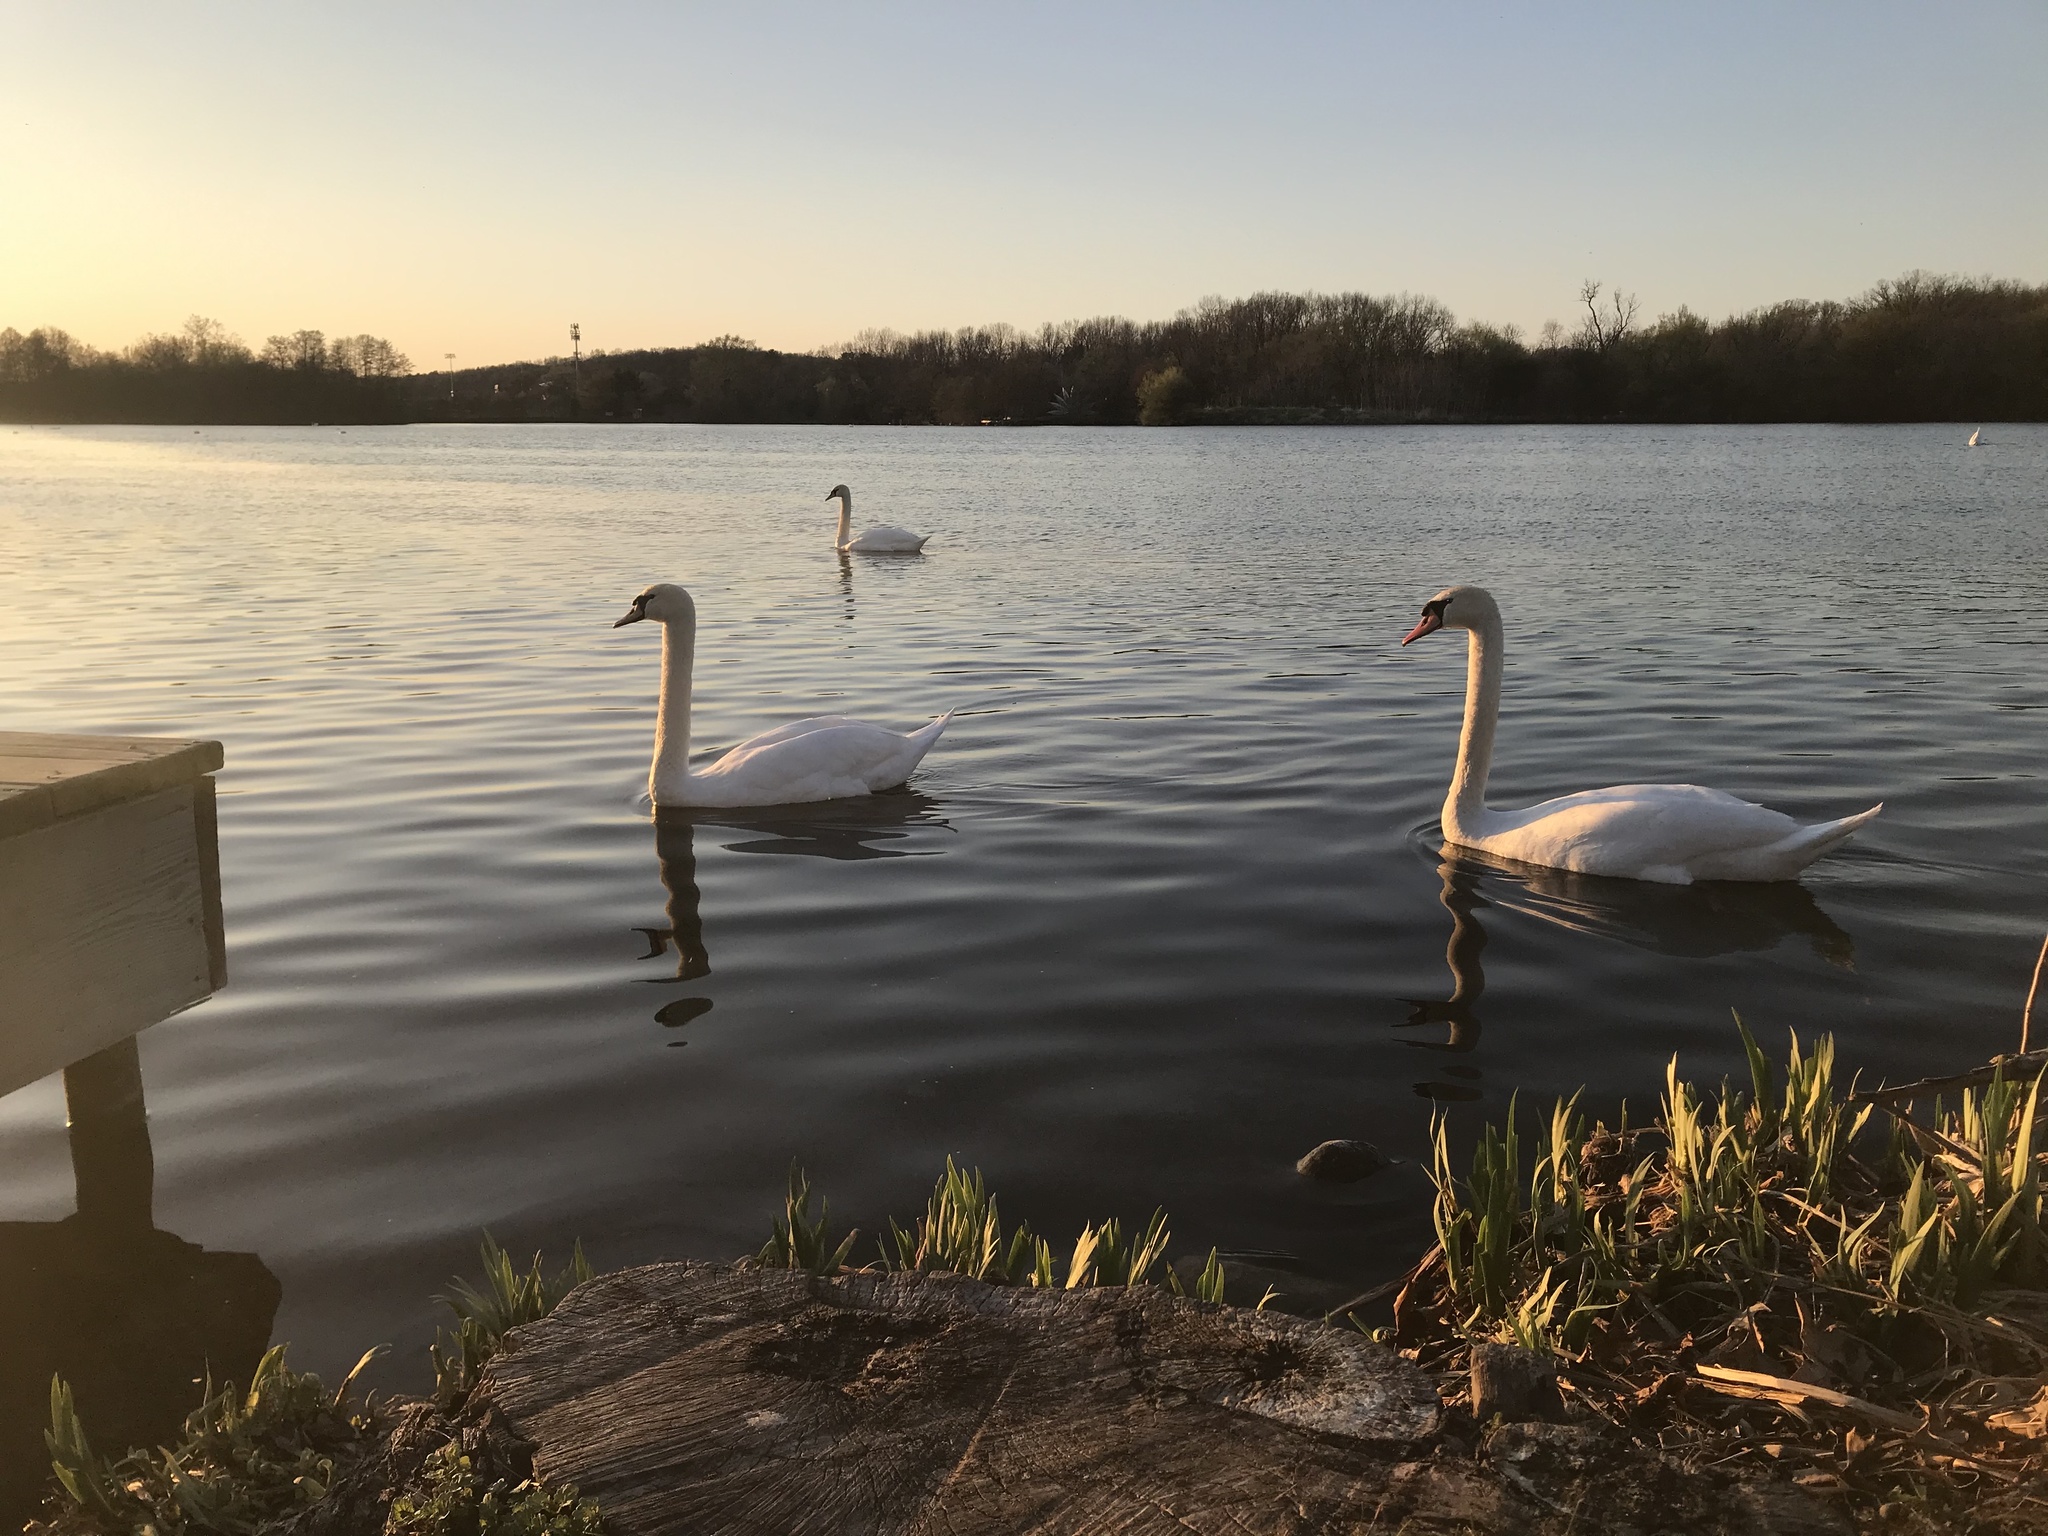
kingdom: Animalia
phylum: Chordata
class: Aves
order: Anseriformes
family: Anatidae
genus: Cygnus
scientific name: Cygnus olor
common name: Mute swan
